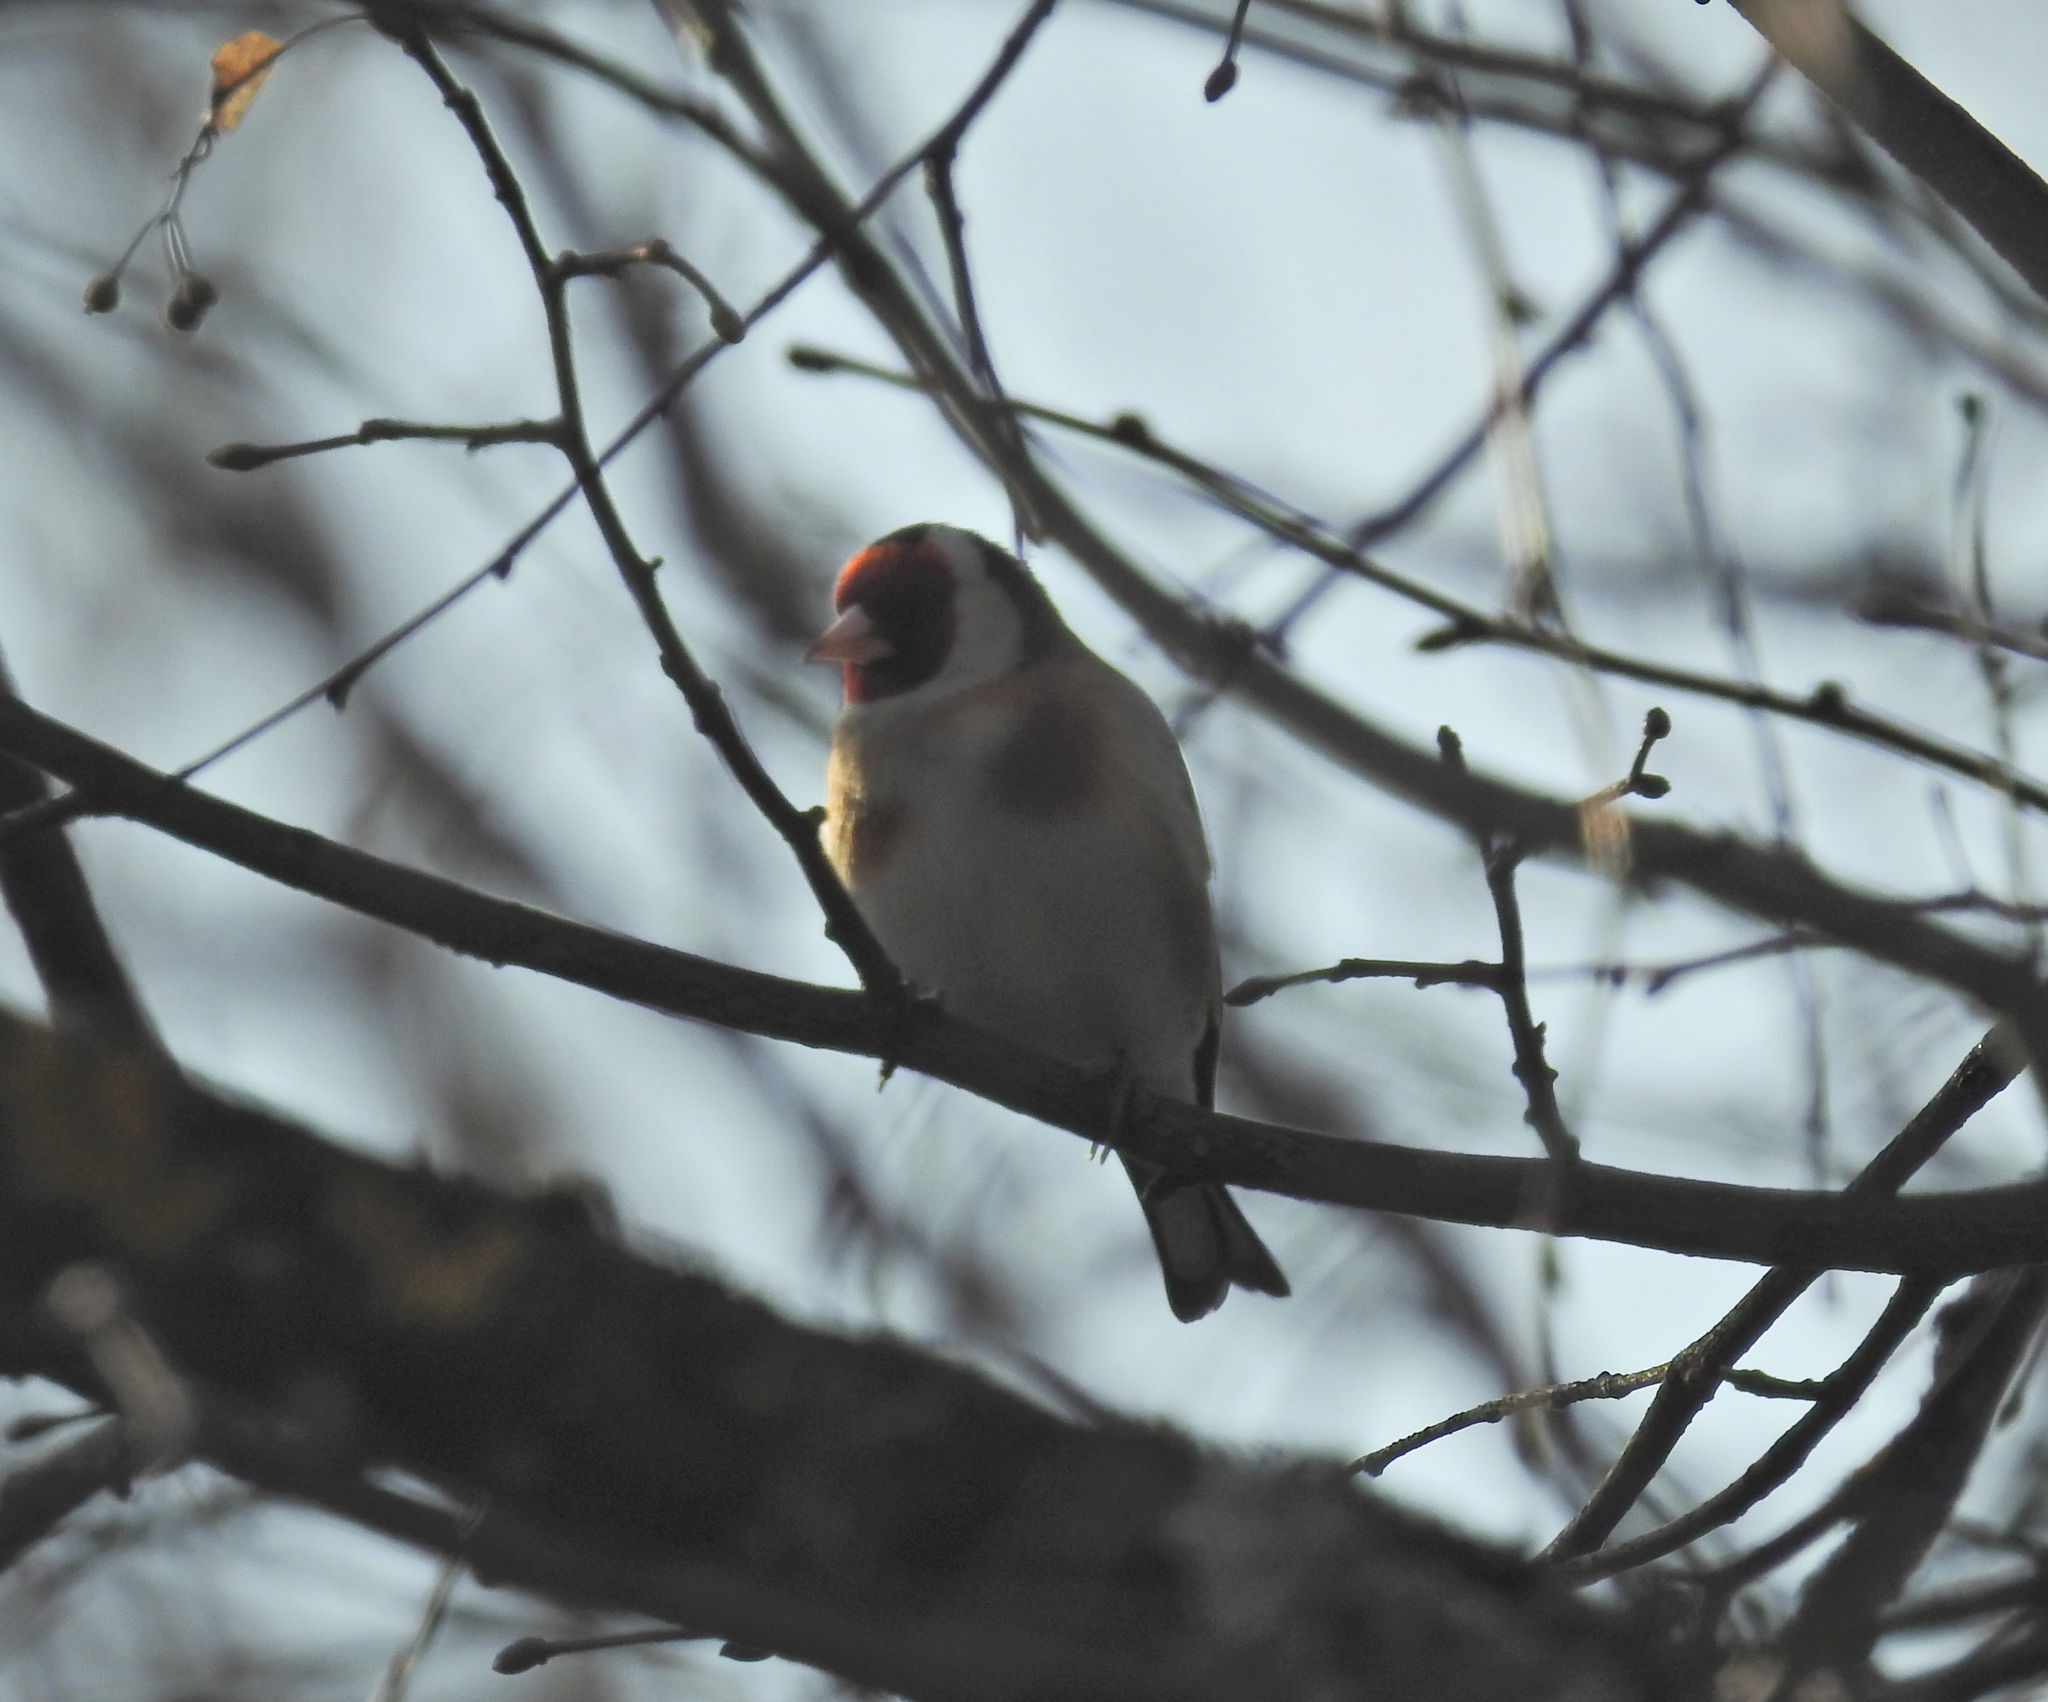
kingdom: Animalia
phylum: Chordata
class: Aves
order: Passeriformes
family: Fringillidae
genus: Carduelis
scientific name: Carduelis carduelis
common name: European goldfinch
